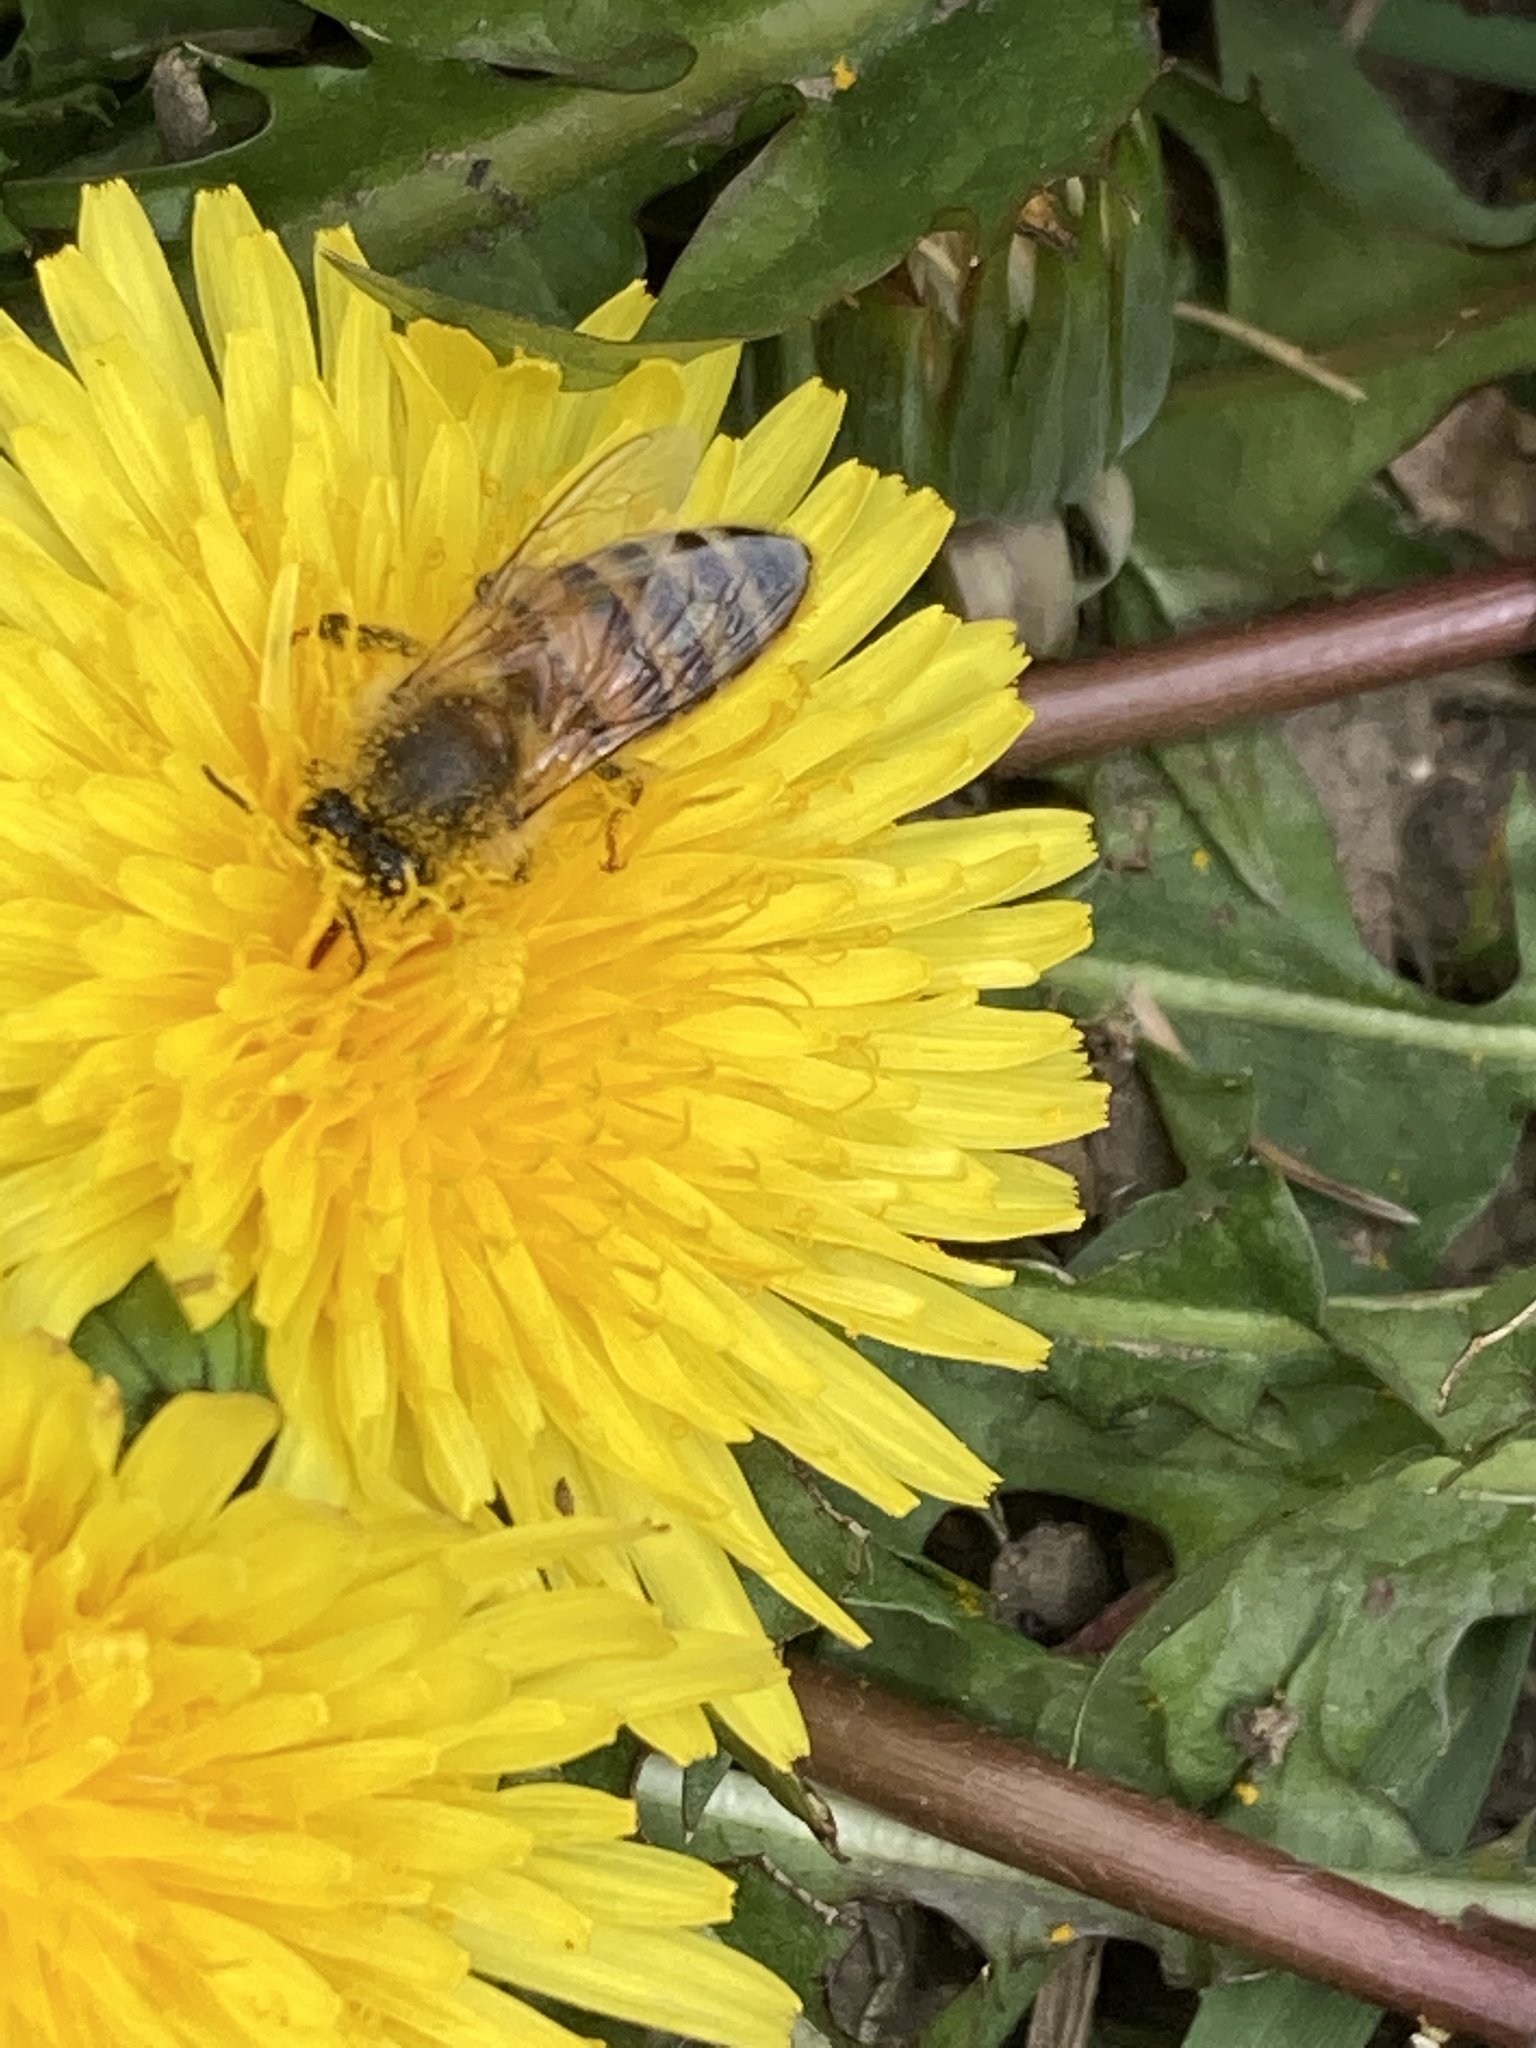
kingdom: Animalia
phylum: Arthropoda
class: Insecta
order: Hymenoptera
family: Apidae
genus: Apis
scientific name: Apis mellifera
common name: Honey bee
